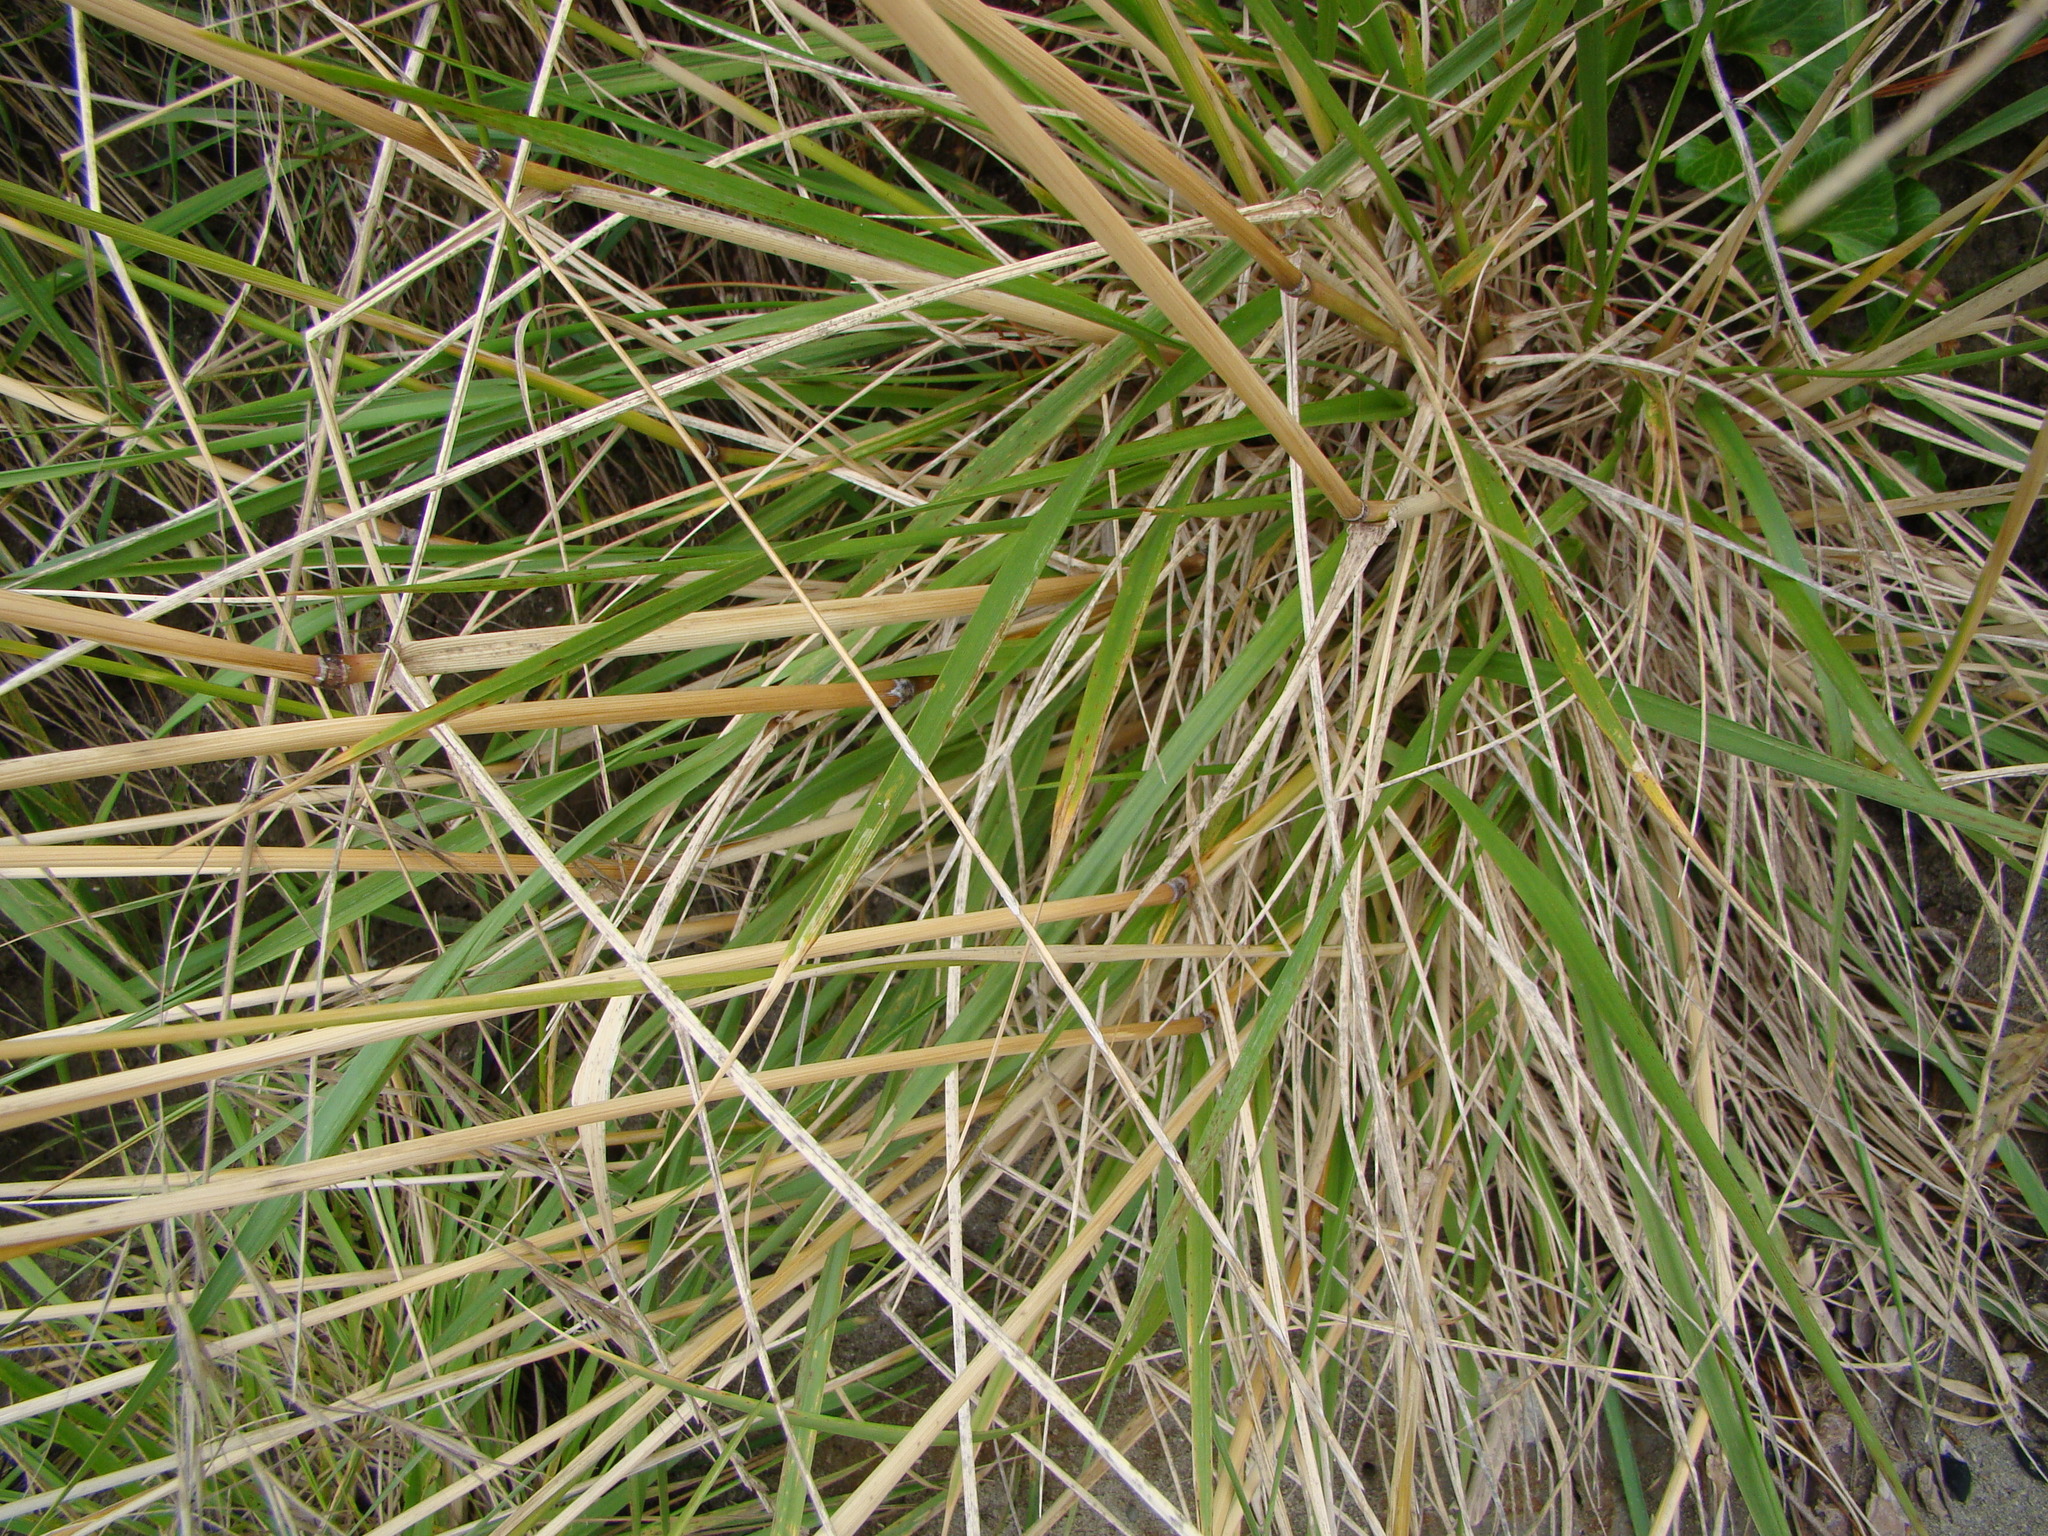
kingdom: Plantae
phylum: Tracheophyta
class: Liliopsida
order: Poales
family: Poaceae
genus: Lolium
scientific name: Lolium arundinaceum
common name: Reed fescue
